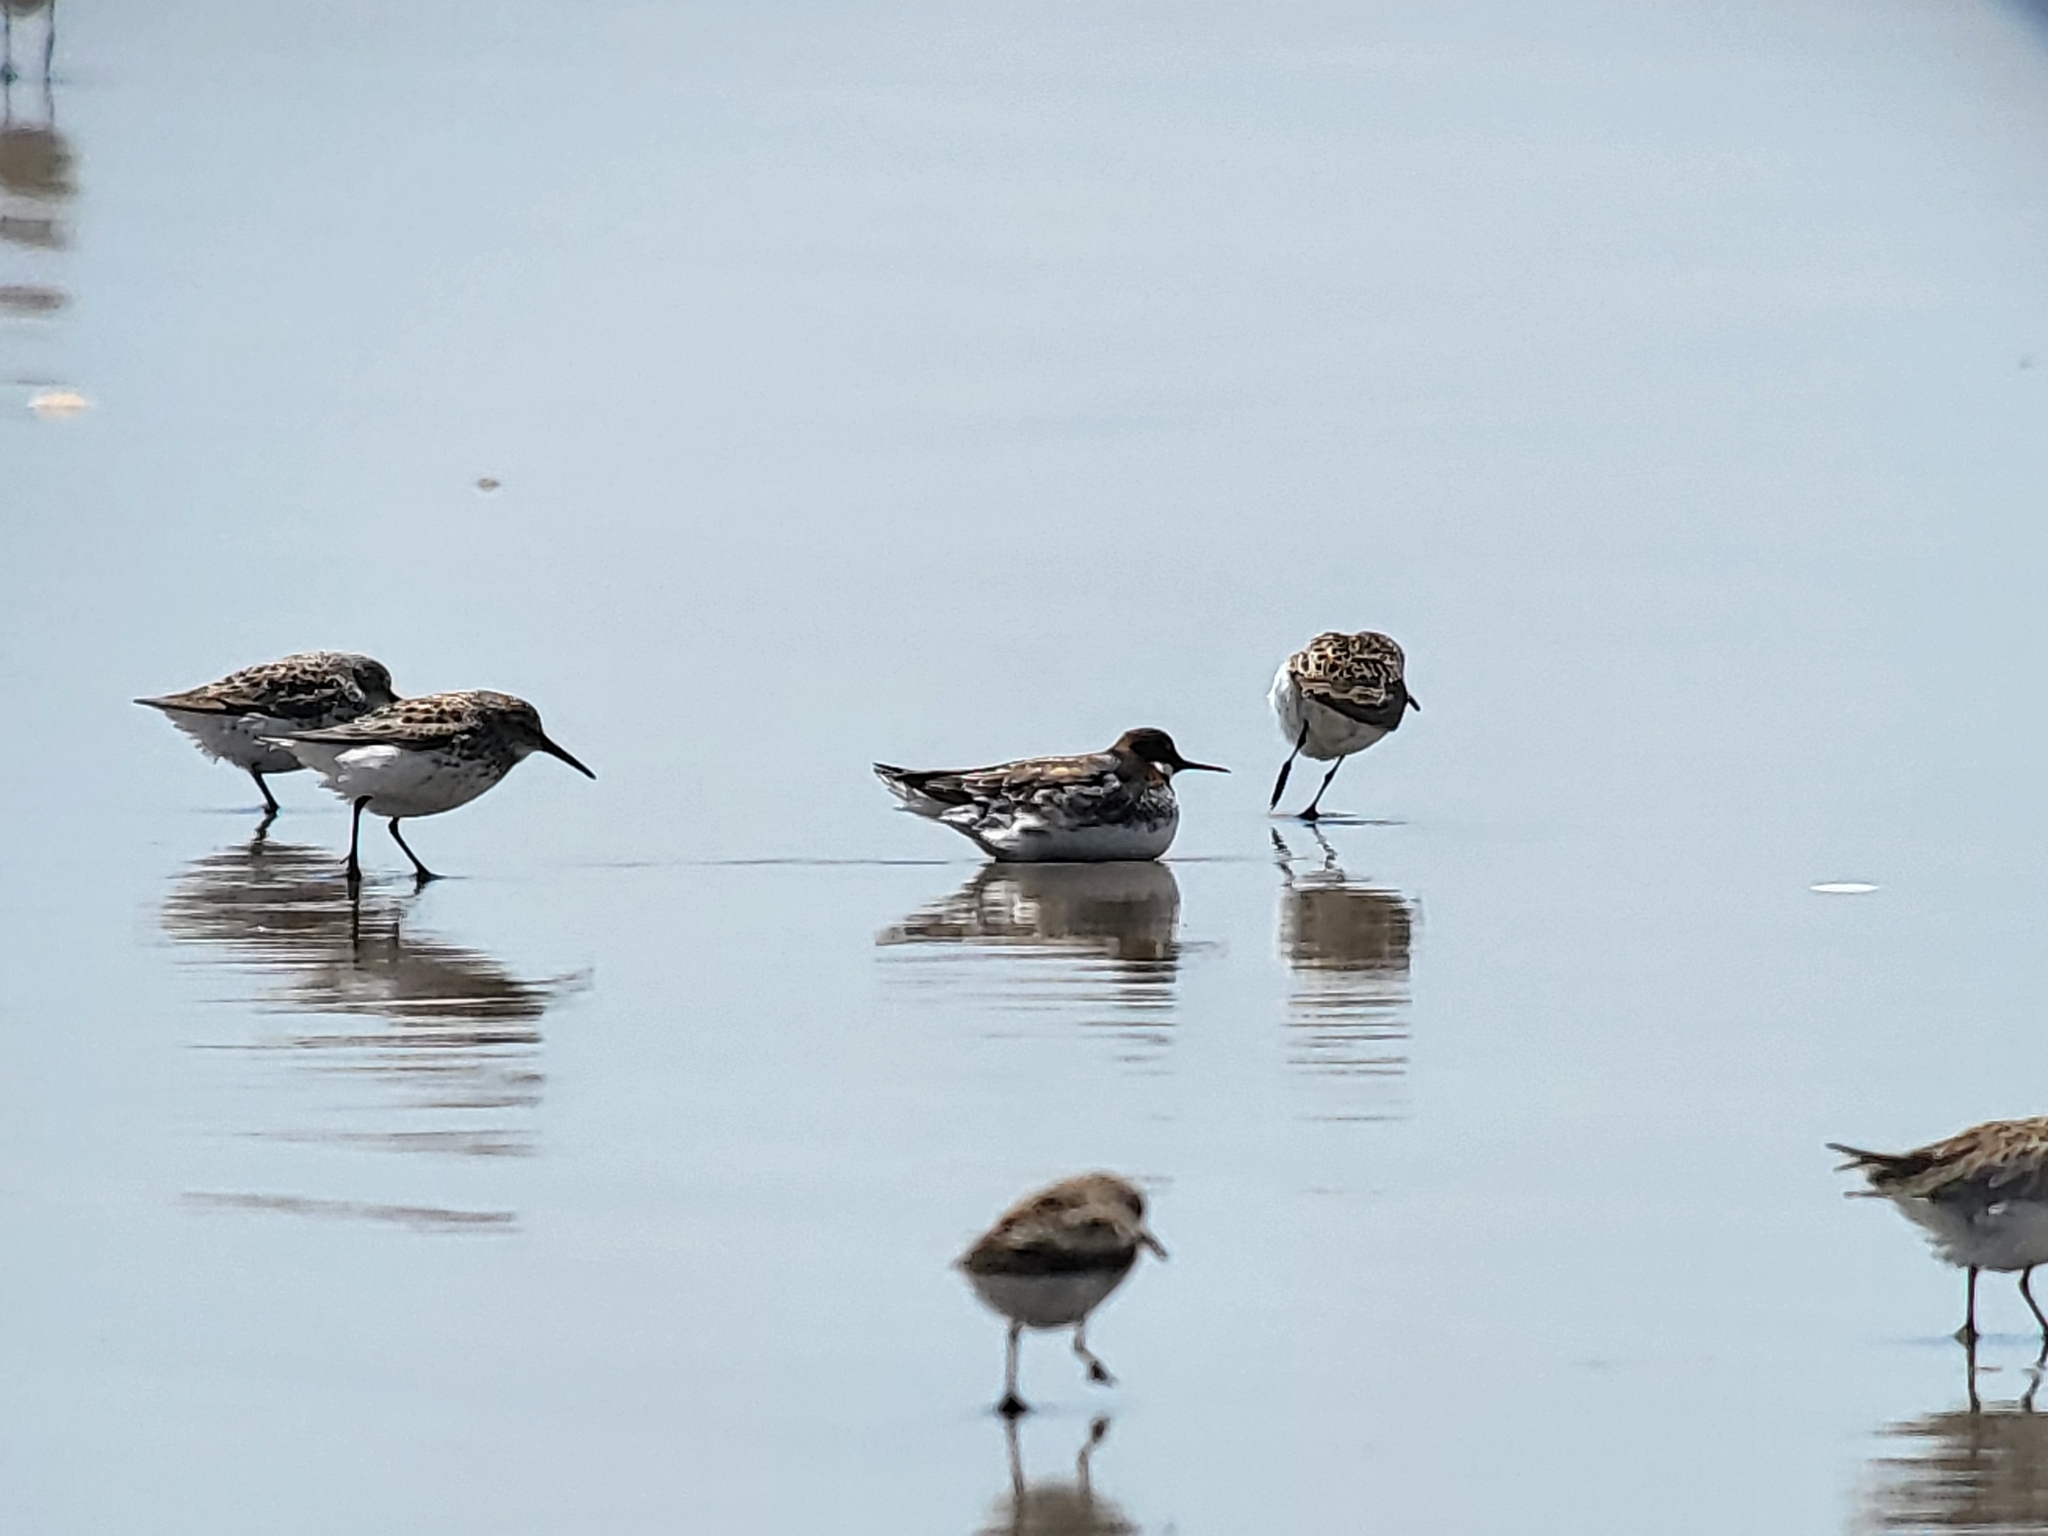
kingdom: Animalia
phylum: Chordata
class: Aves
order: Charadriiformes
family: Scolopacidae
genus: Calidris
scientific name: Calidris mauri
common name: Western sandpiper
